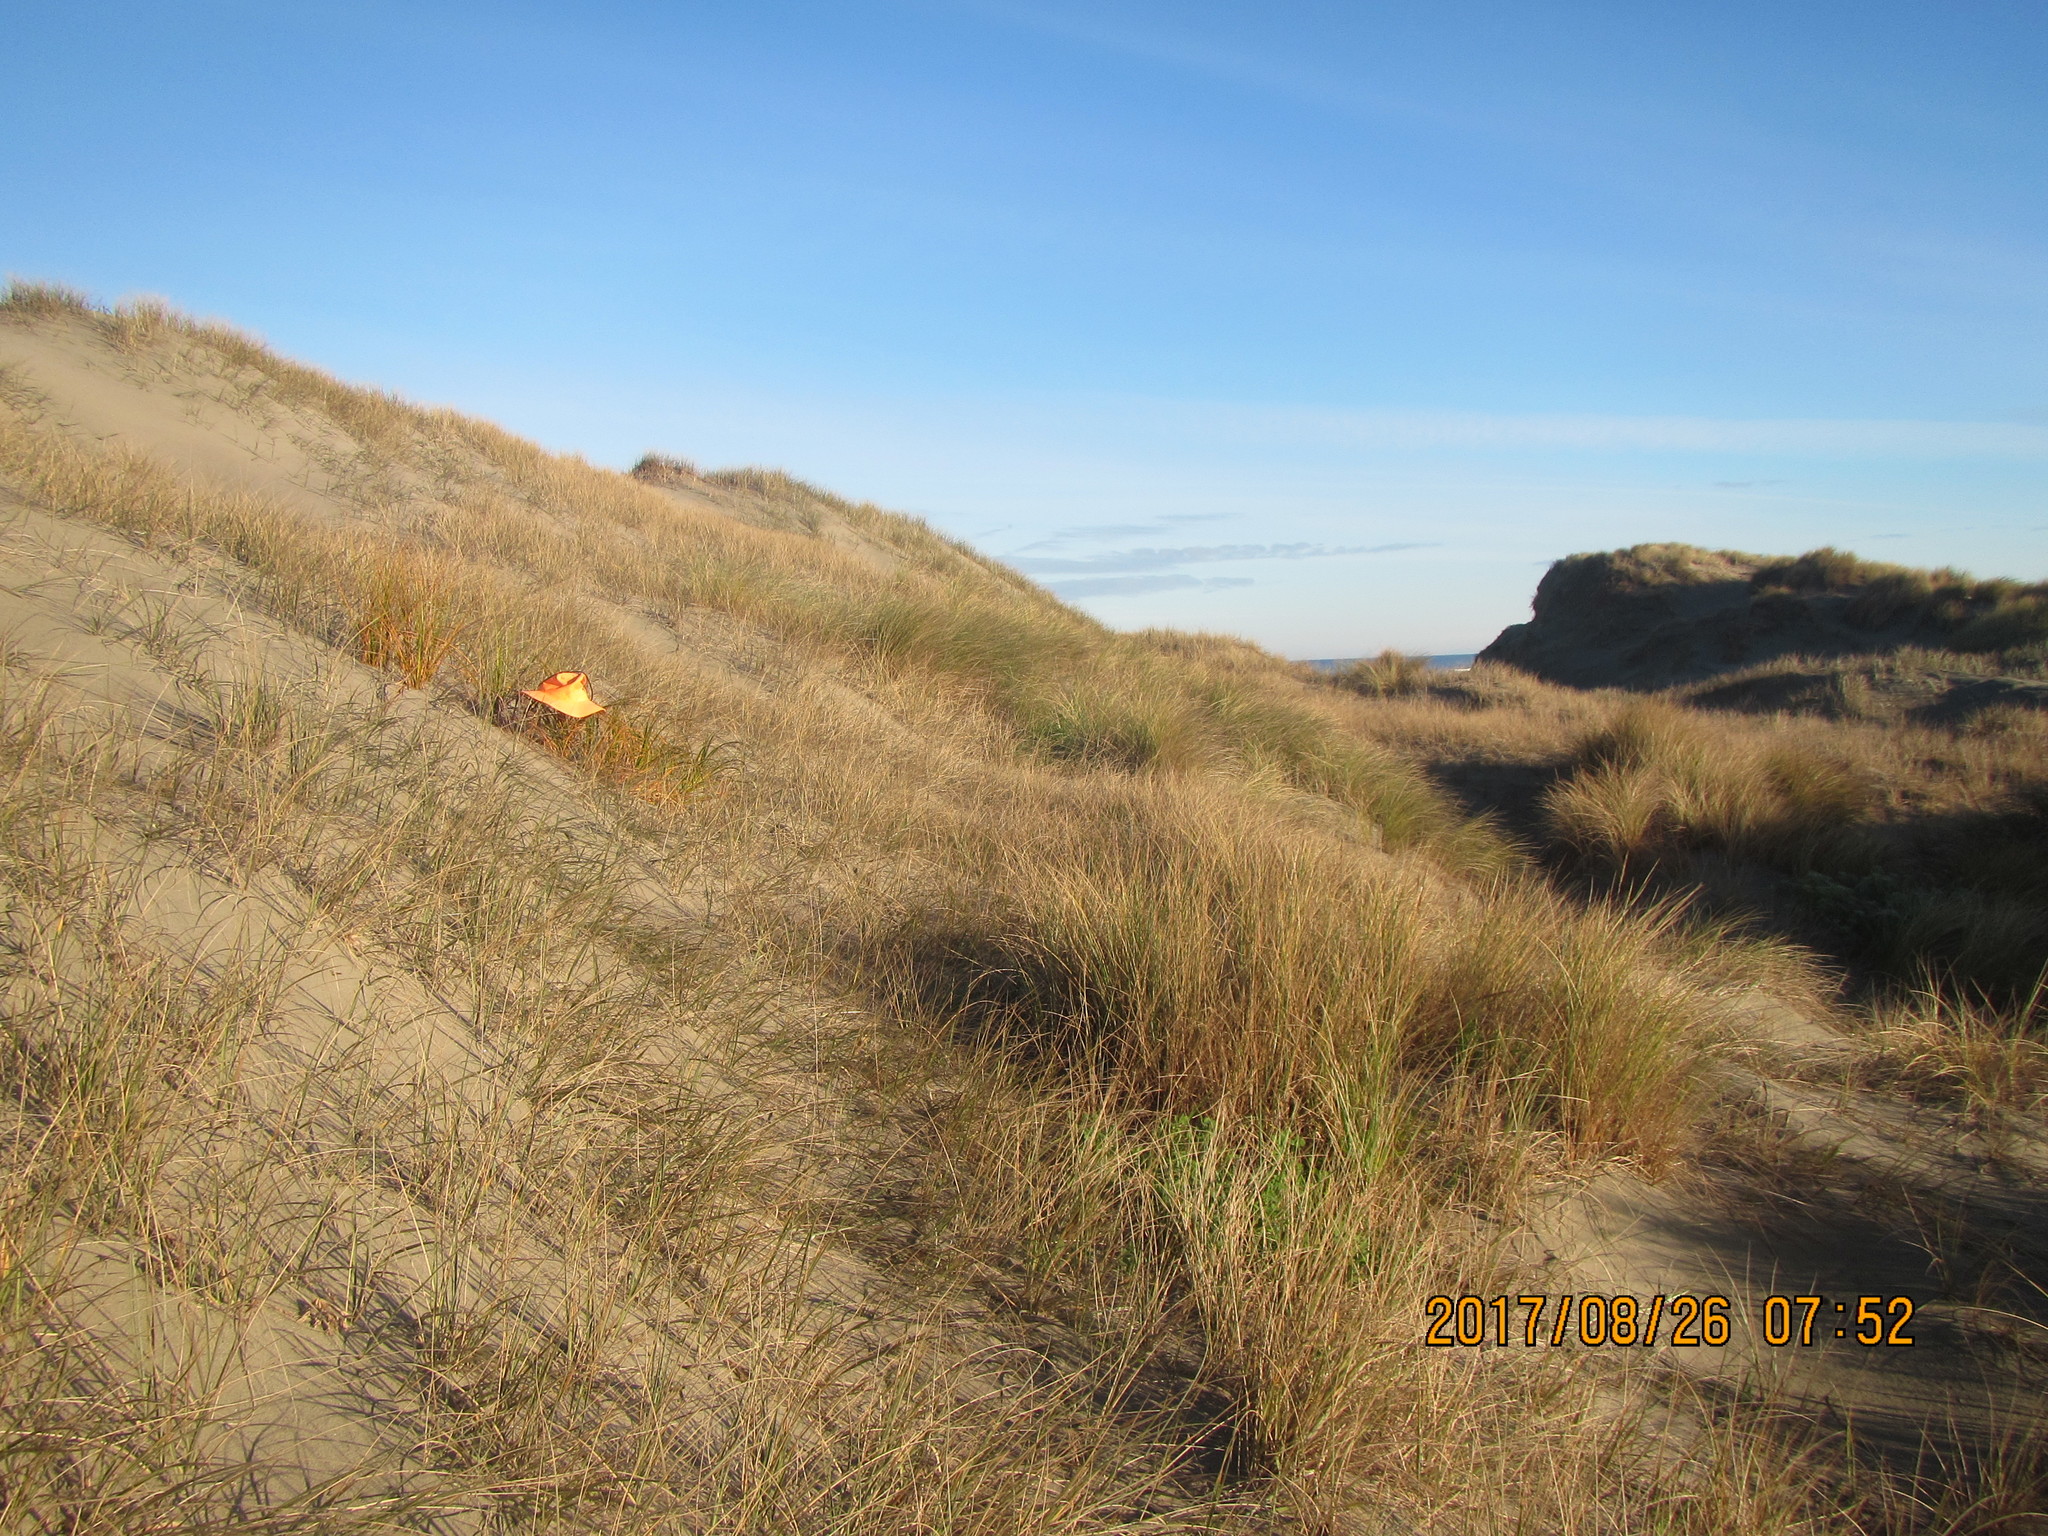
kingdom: Plantae
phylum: Tracheophyta
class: Liliopsida
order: Poales
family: Cyperaceae
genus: Ficinia
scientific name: Ficinia spiralis
